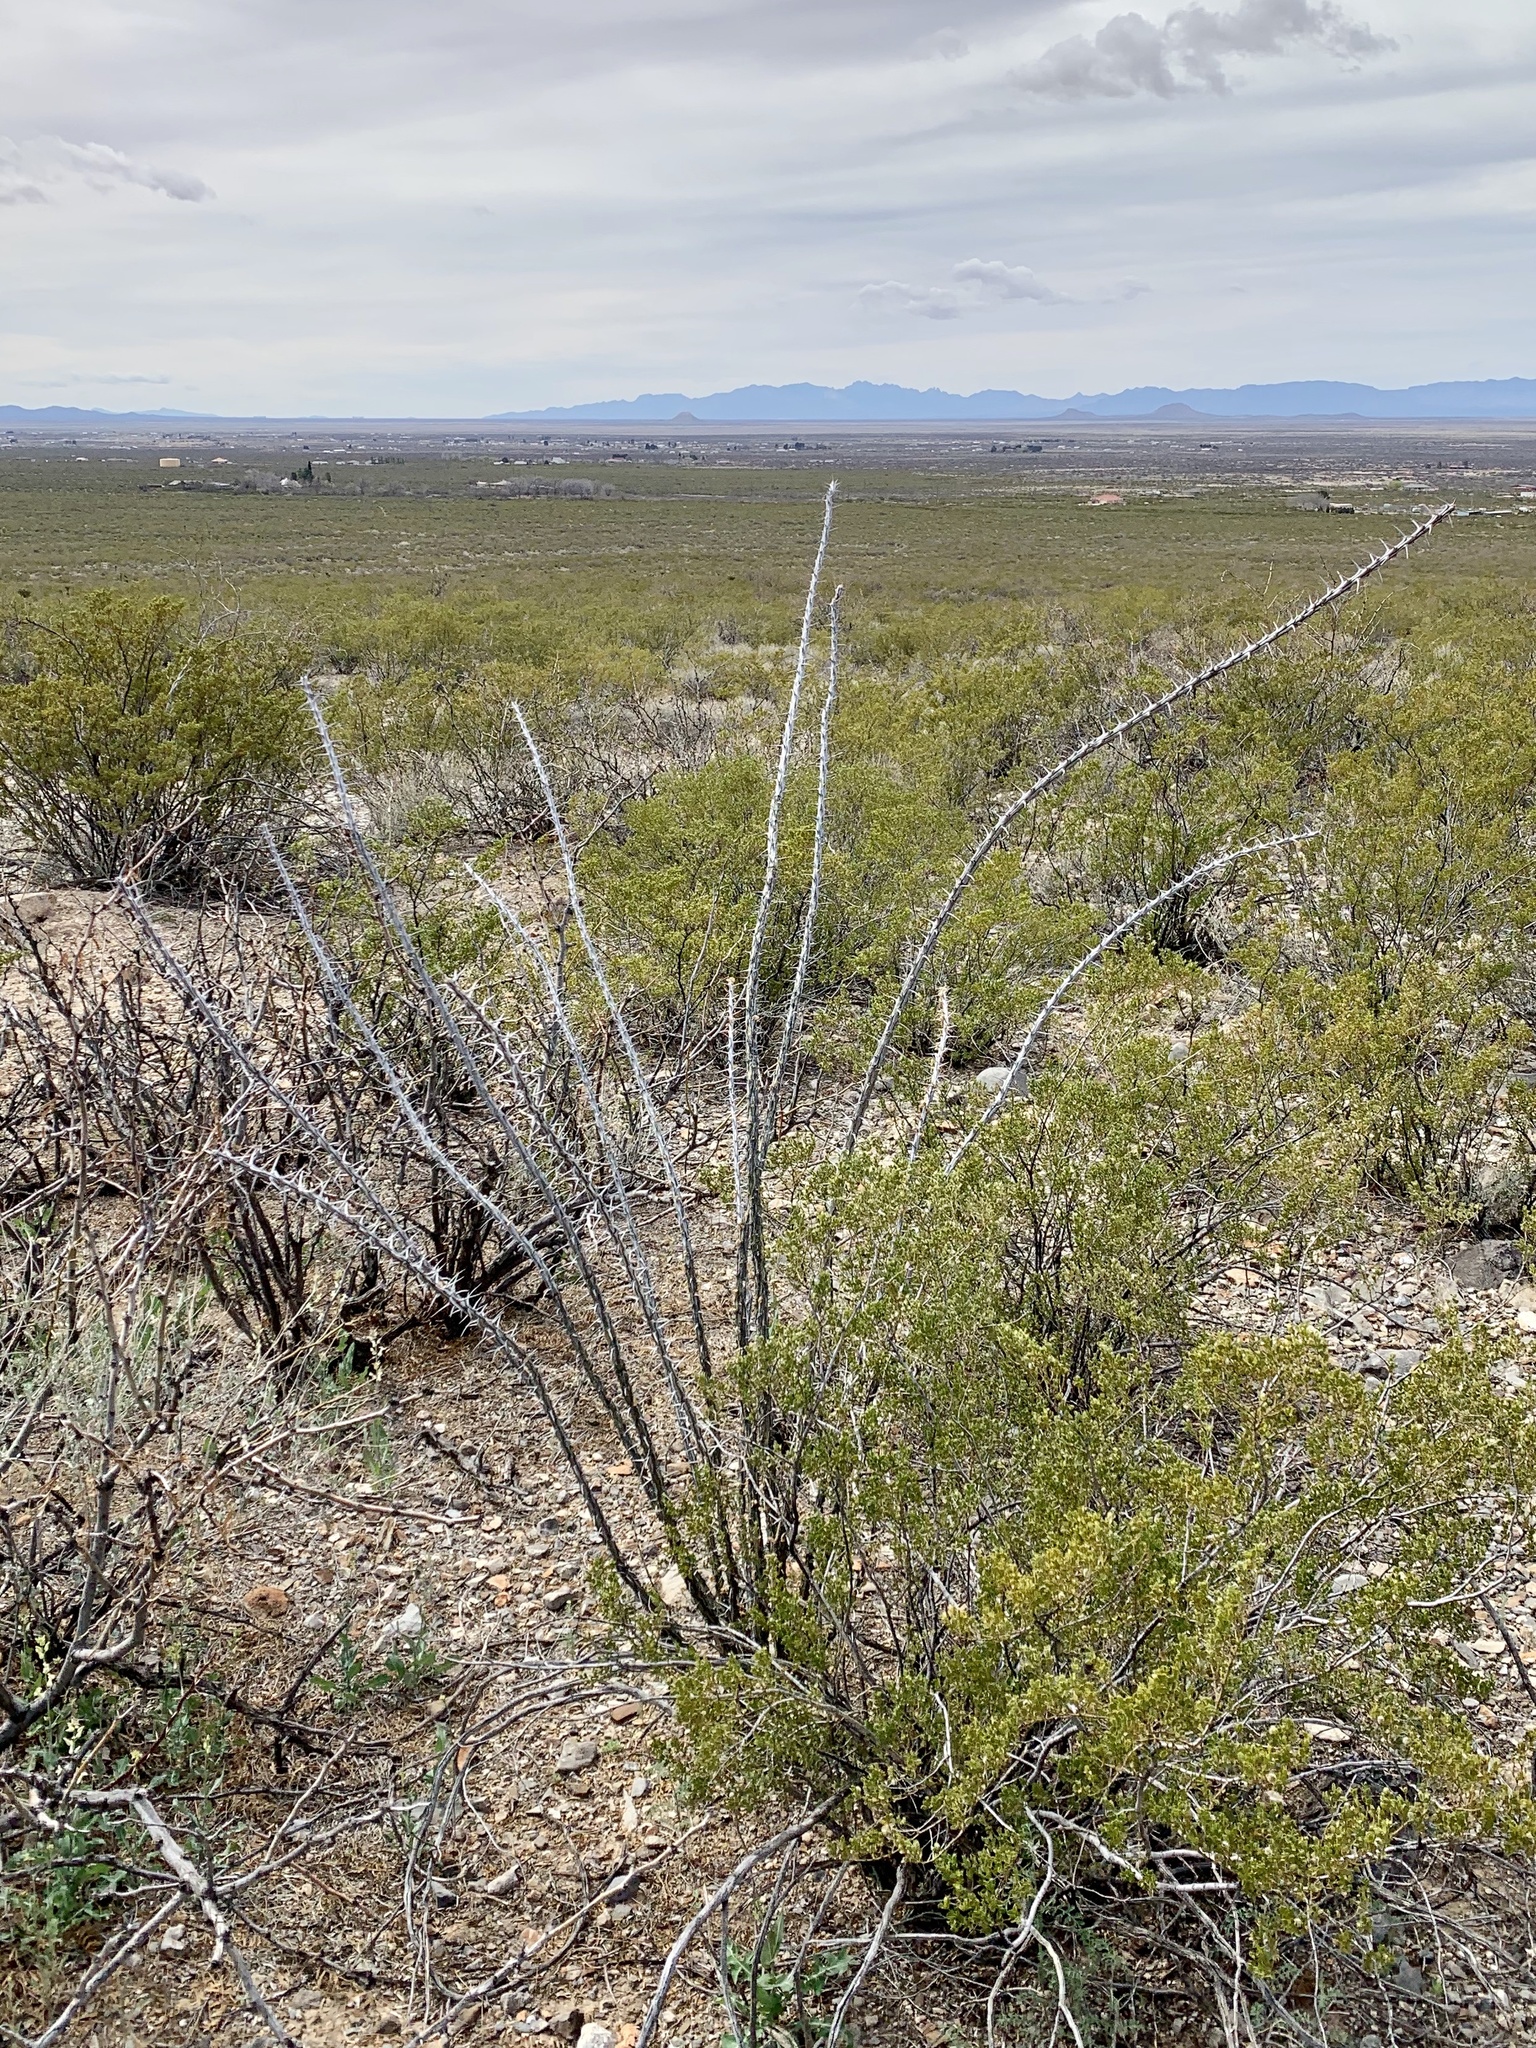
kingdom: Plantae
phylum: Tracheophyta
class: Magnoliopsida
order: Ericales
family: Fouquieriaceae
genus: Fouquieria
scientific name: Fouquieria splendens
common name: Vine-cactus
